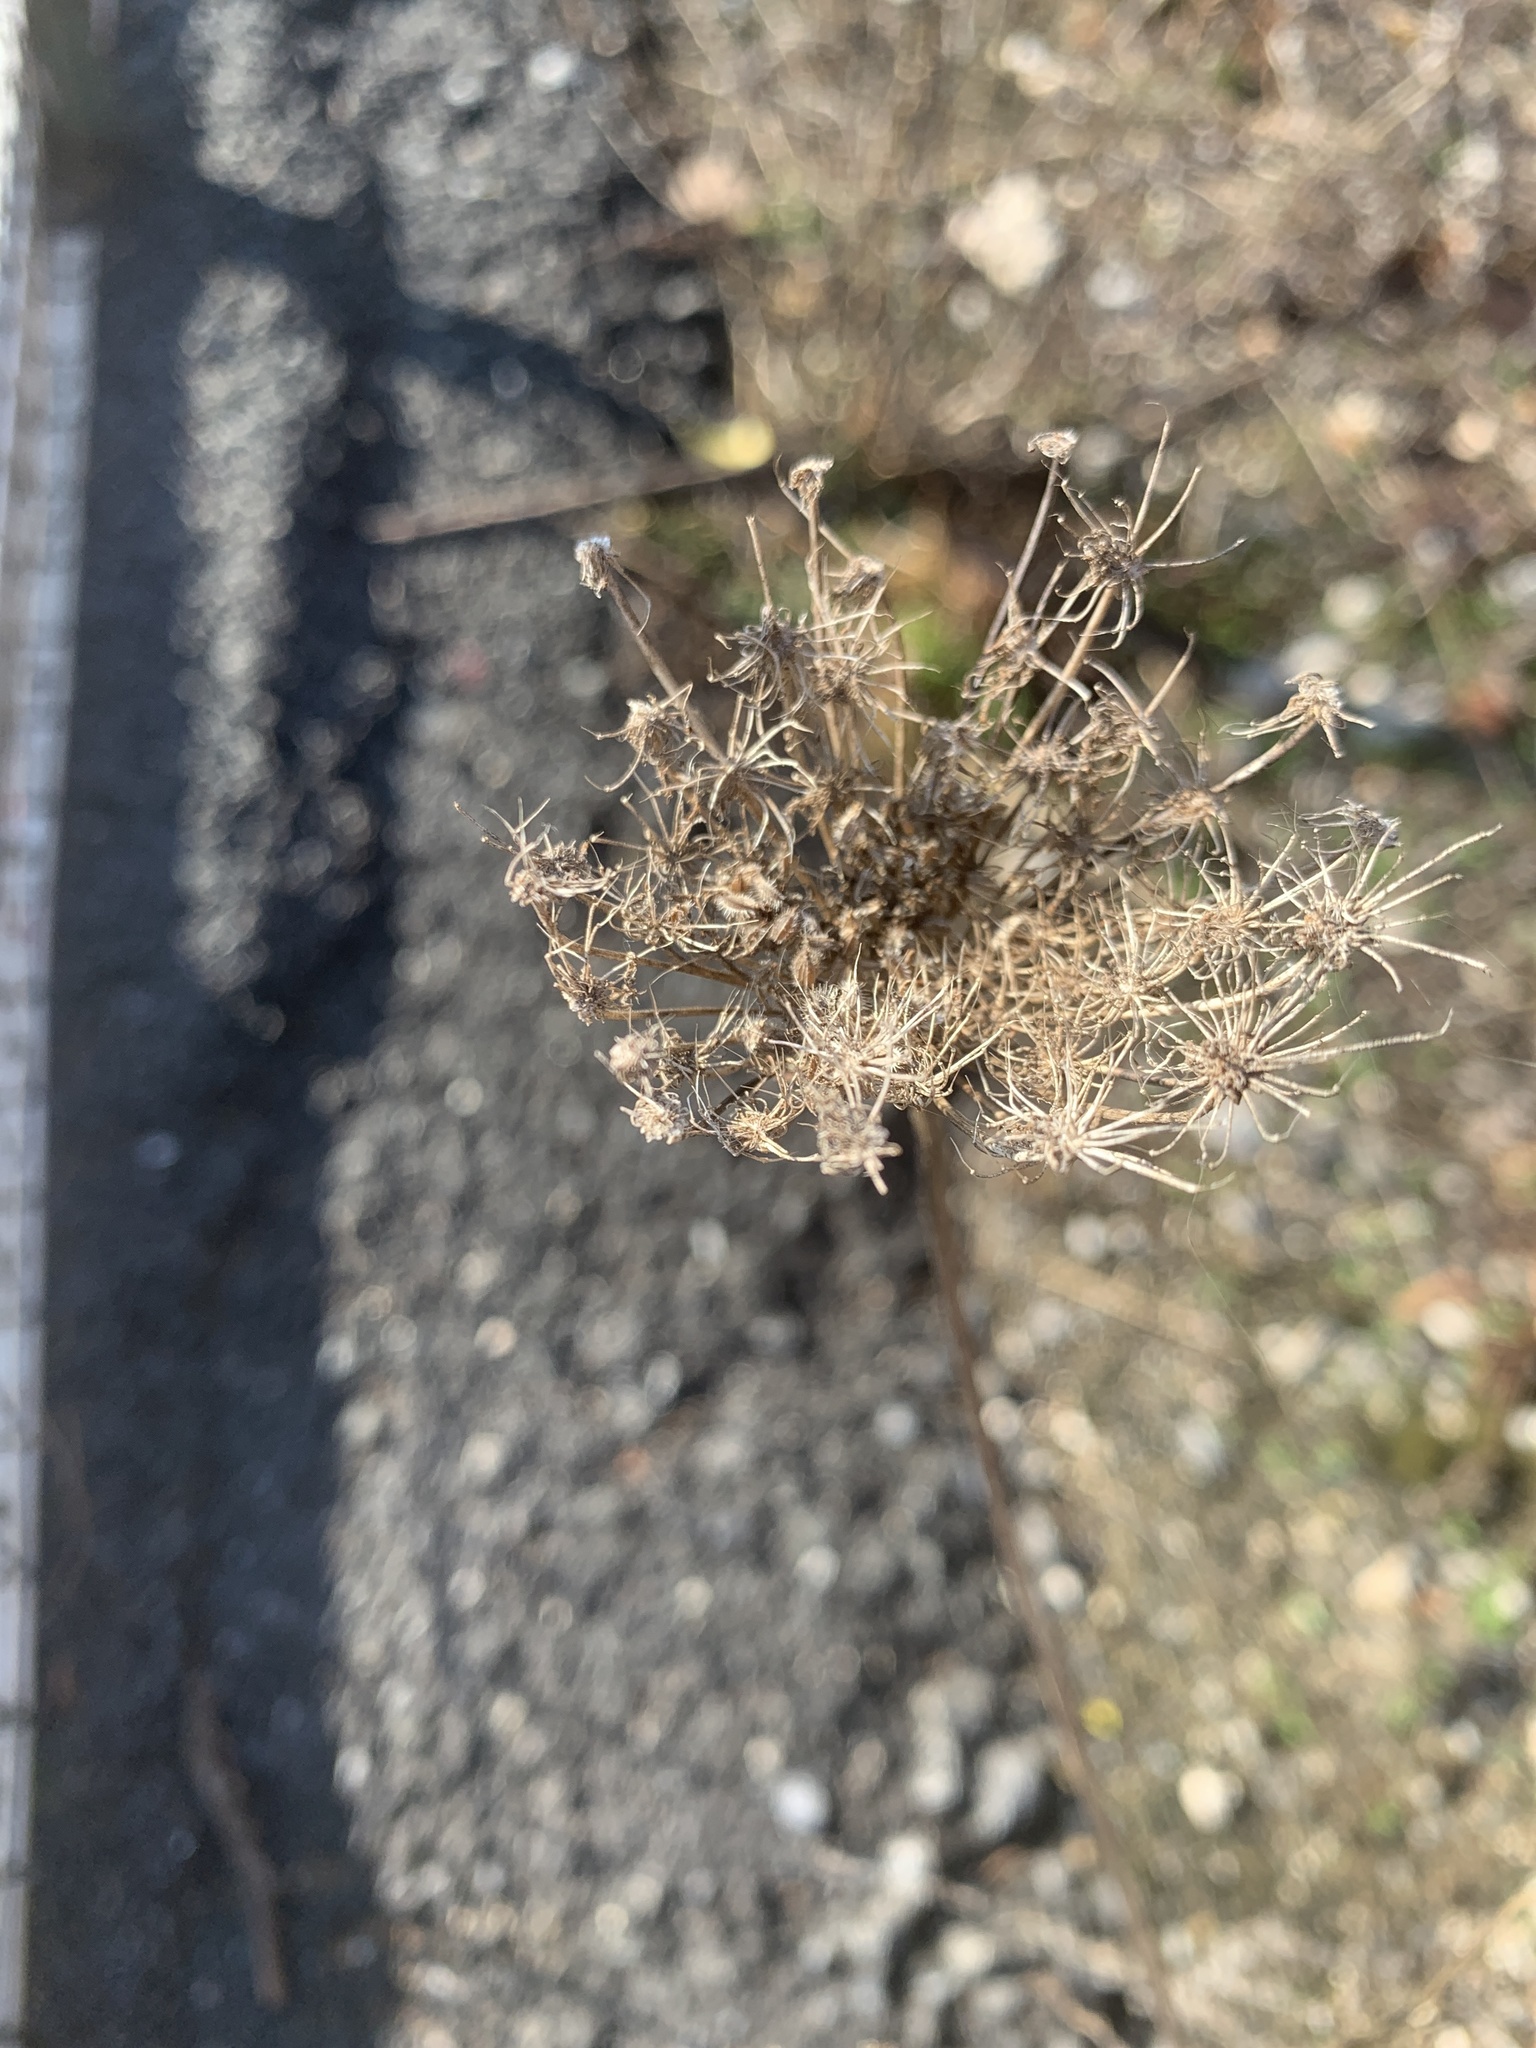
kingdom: Plantae
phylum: Tracheophyta
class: Magnoliopsida
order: Apiales
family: Apiaceae
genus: Daucus
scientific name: Daucus carota
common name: Wild carrot
